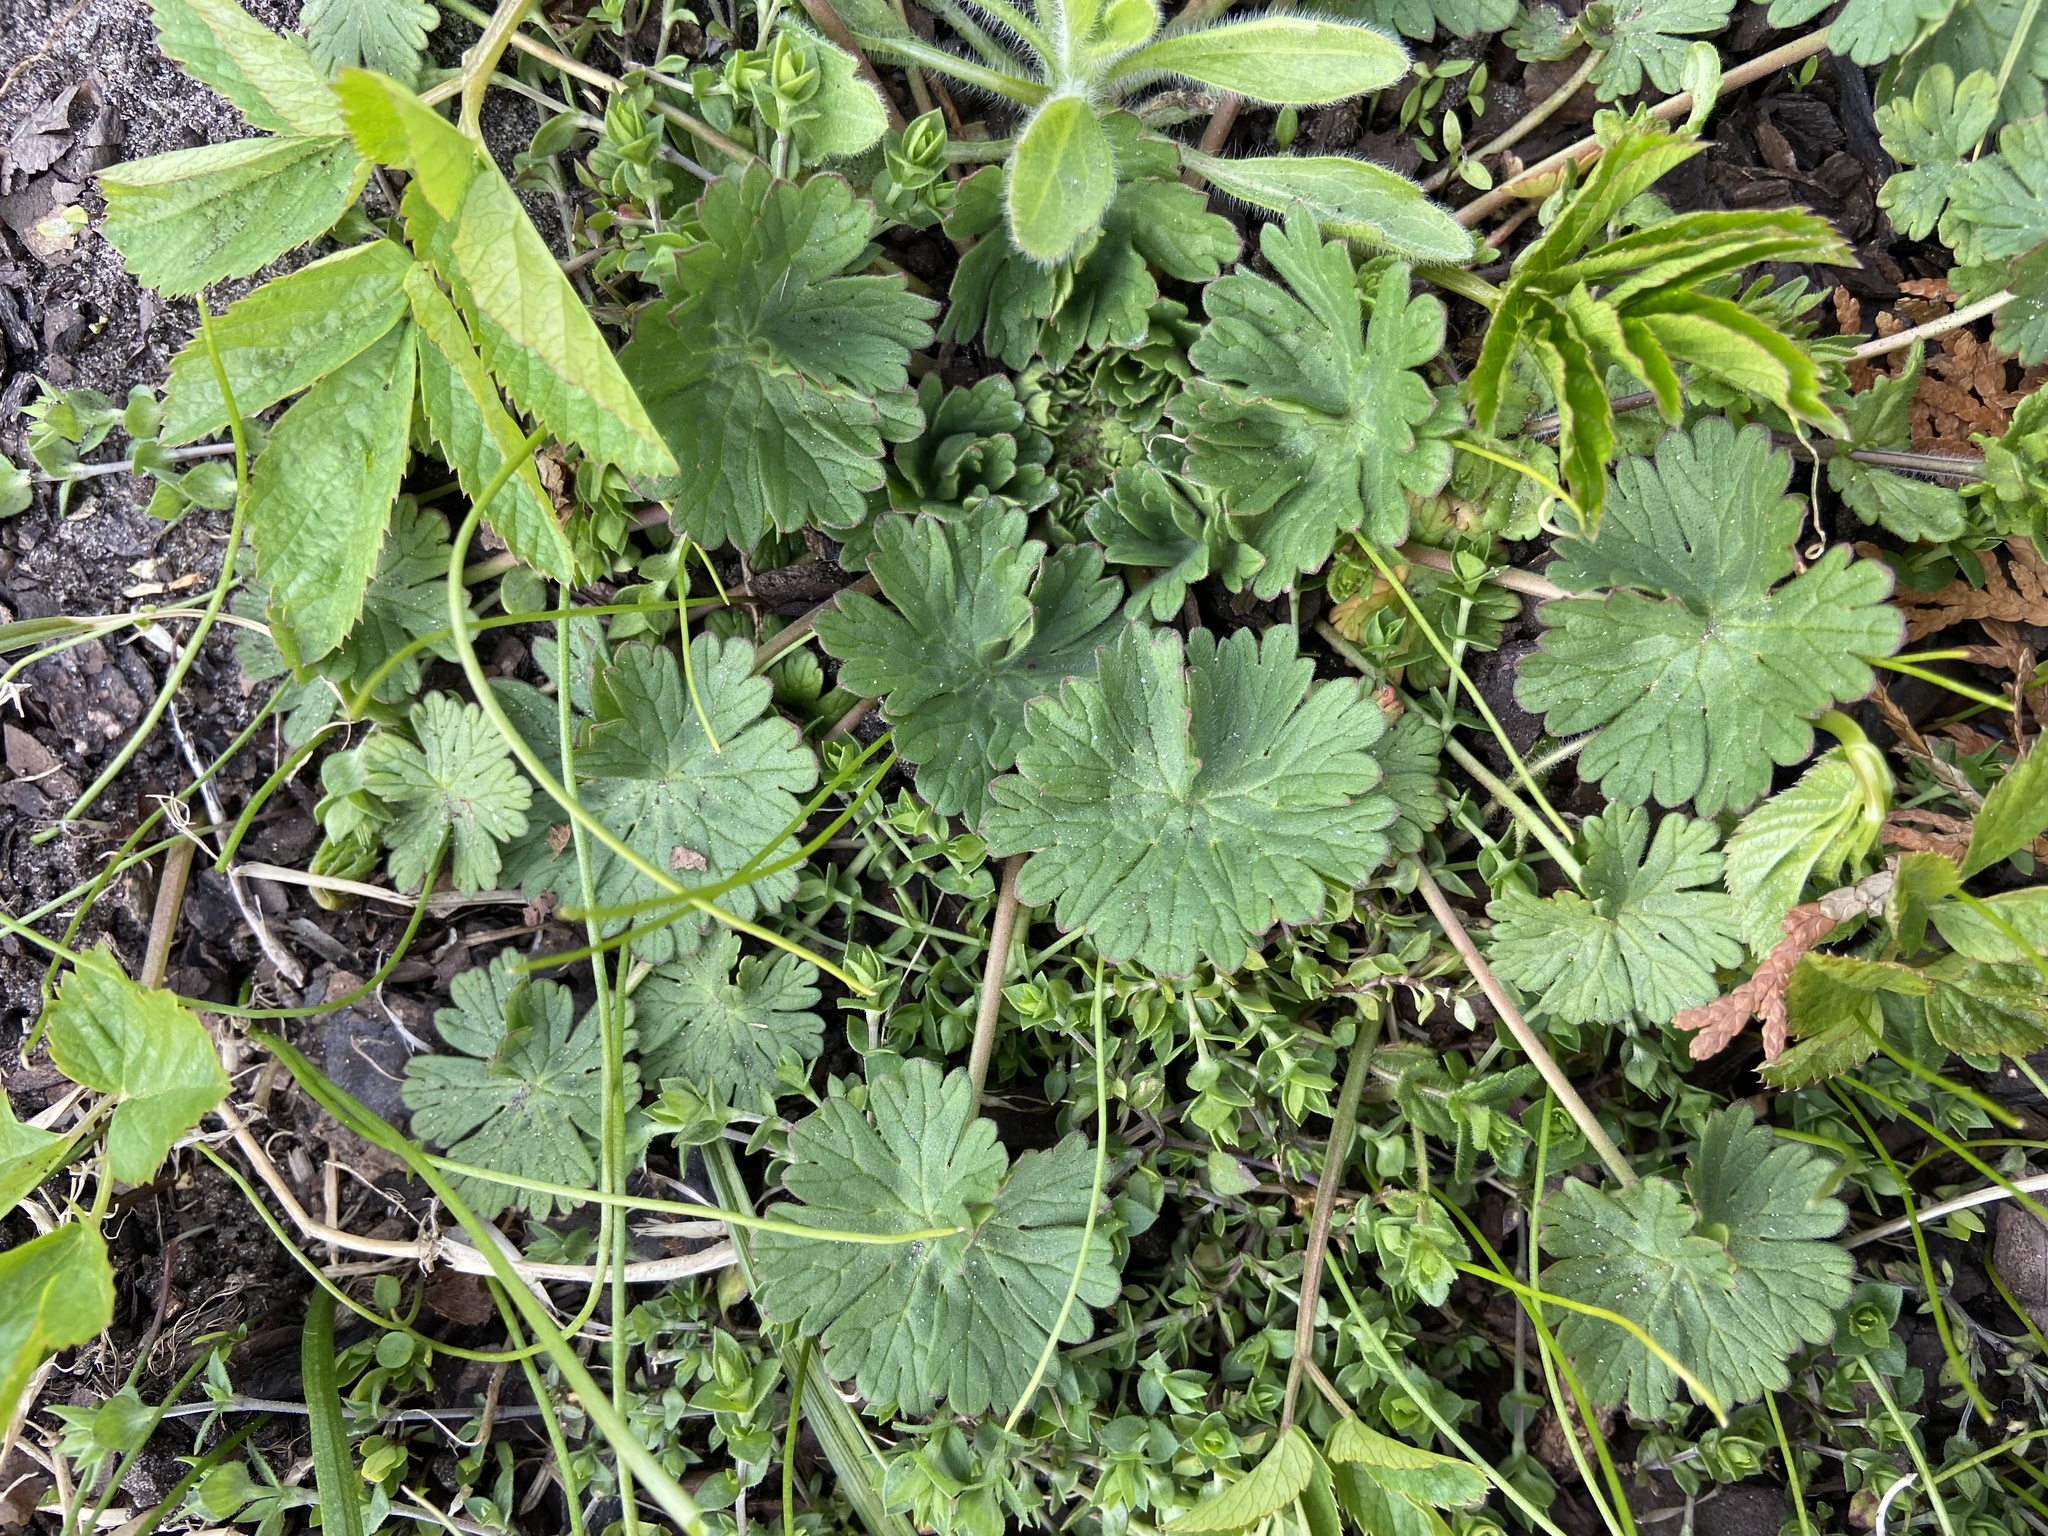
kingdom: Plantae
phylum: Tracheophyta
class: Magnoliopsida
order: Geraniales
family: Geraniaceae
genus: Geranium
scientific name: Geranium pusillum
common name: Small geranium
